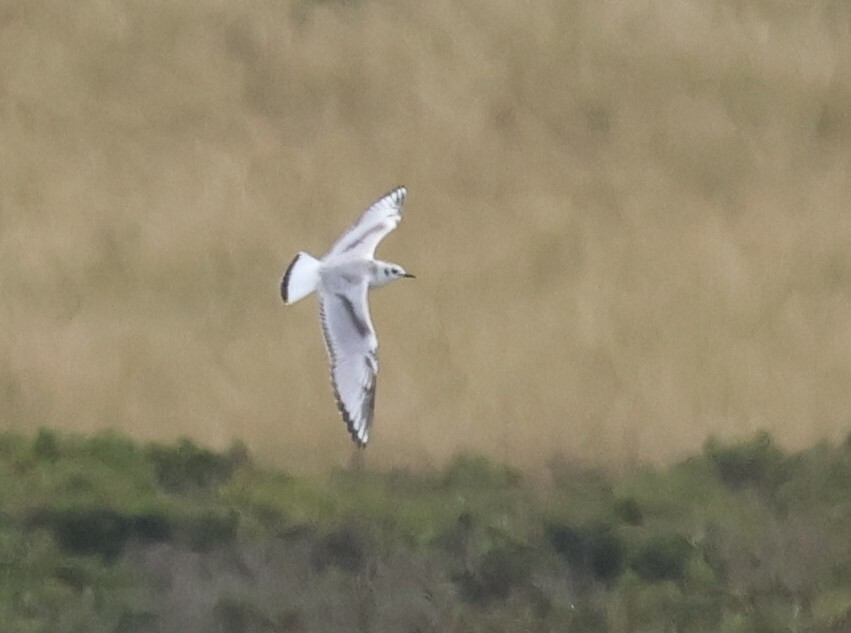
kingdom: Animalia
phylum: Chordata
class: Aves
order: Charadriiformes
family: Laridae
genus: Chroicocephalus
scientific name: Chroicocephalus philadelphia
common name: Bonaparte's gull
